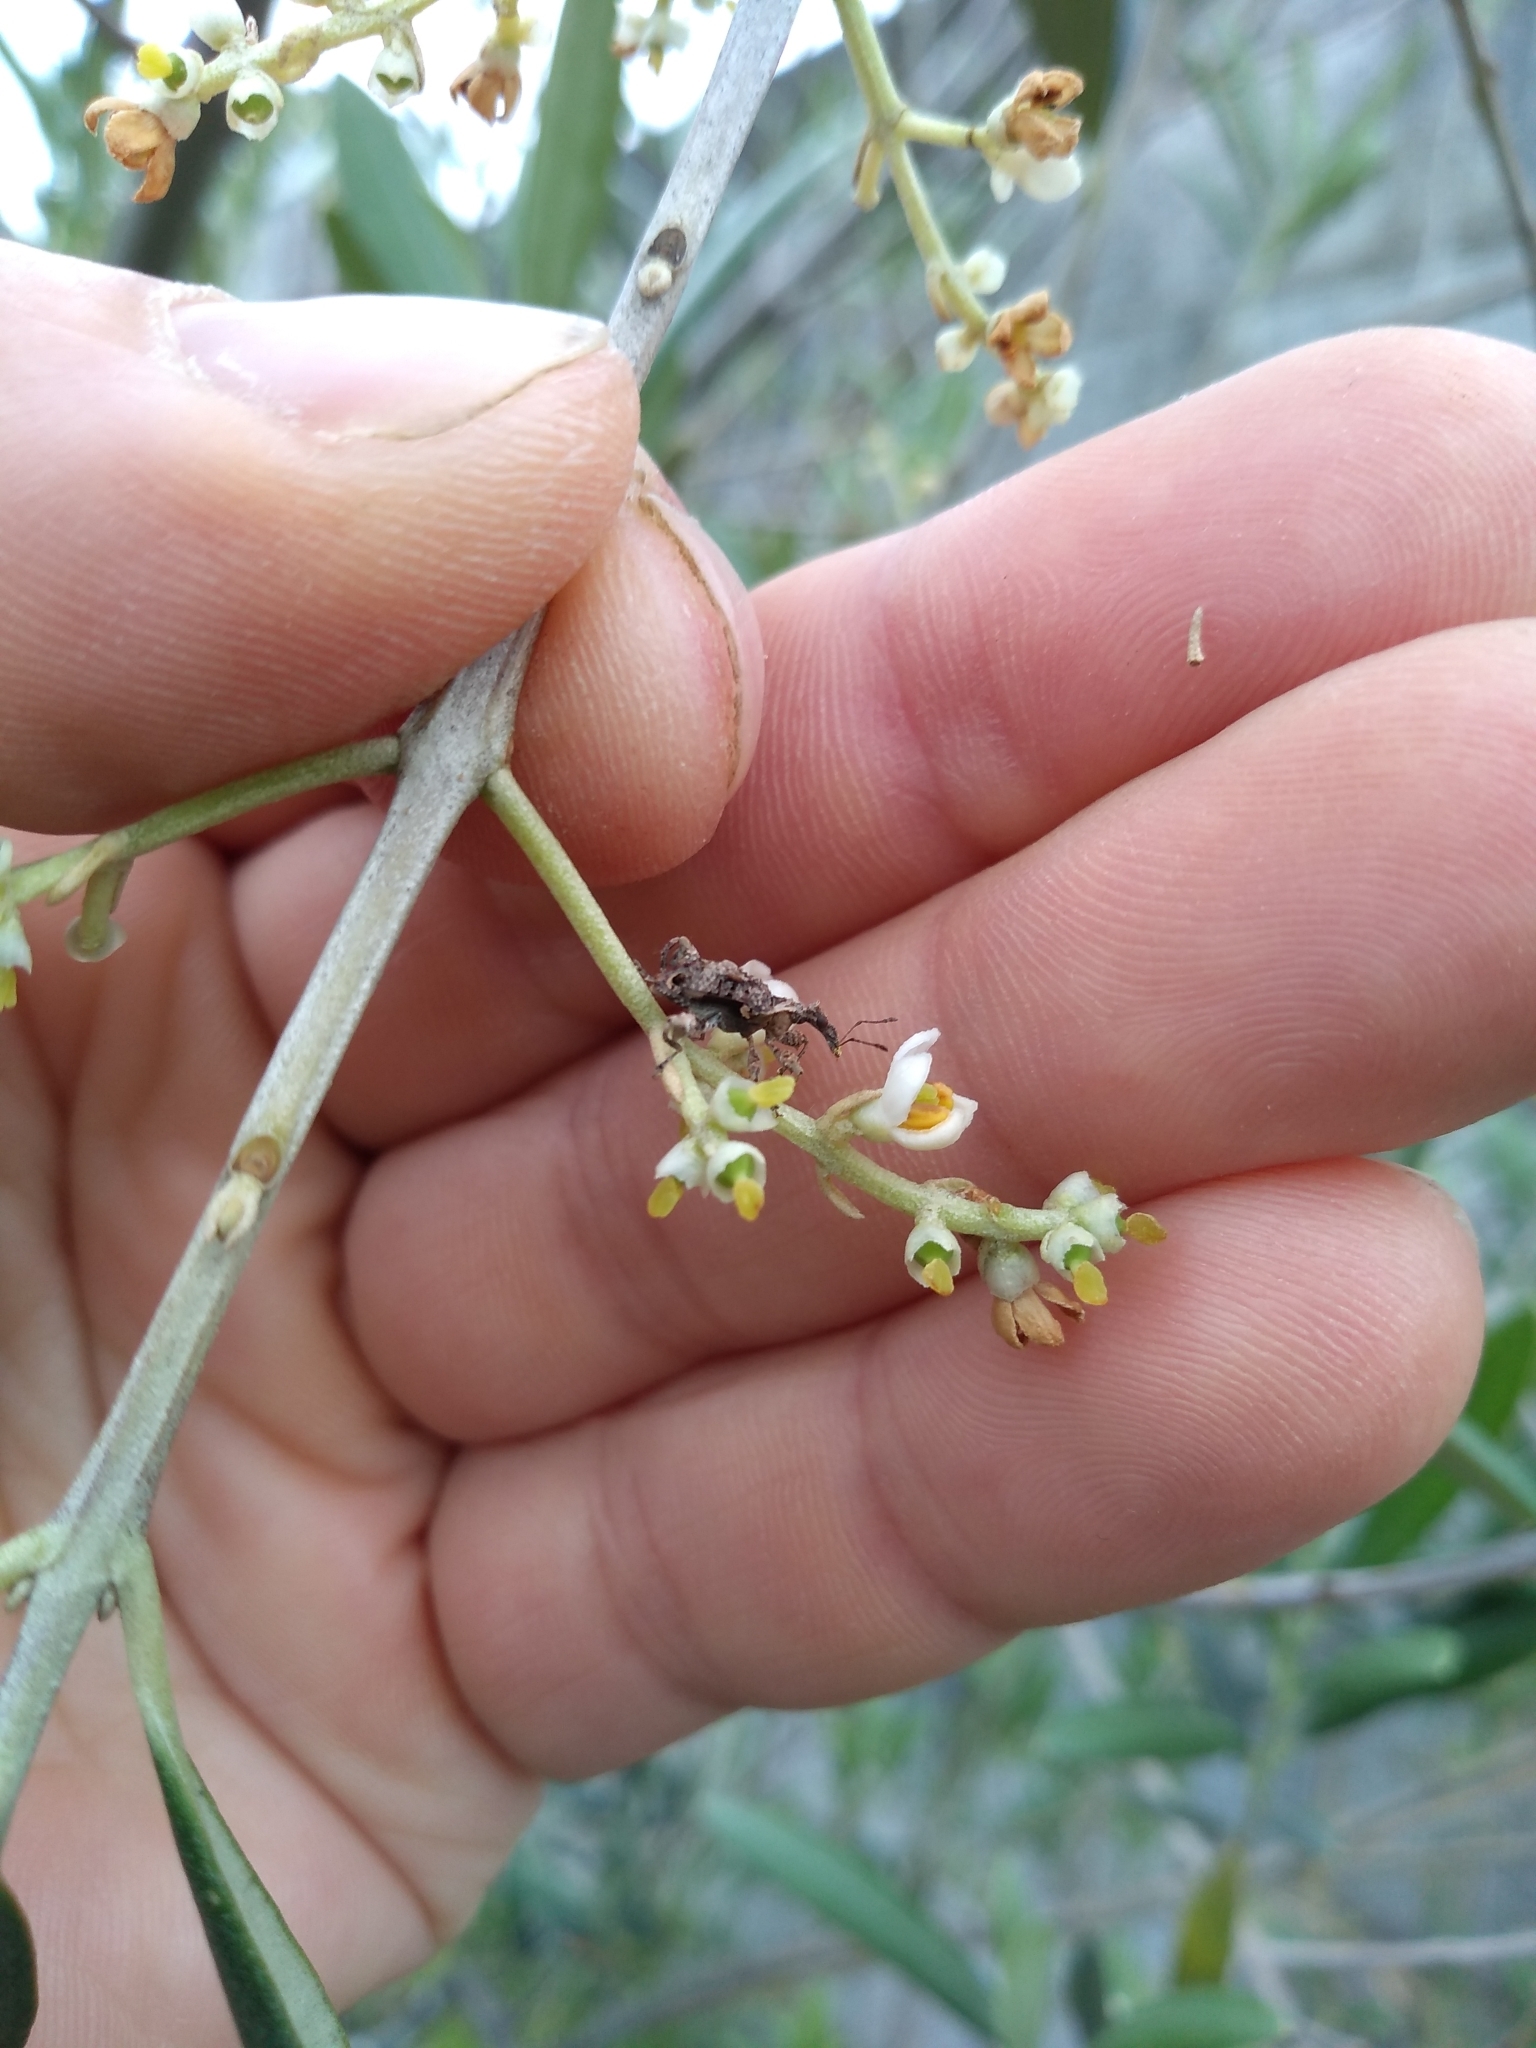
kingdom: Animalia
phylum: Arthropoda
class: Insecta
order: Coleoptera
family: Curculionidae
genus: Stephanorhynchus
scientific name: Stephanorhynchus curvipes
